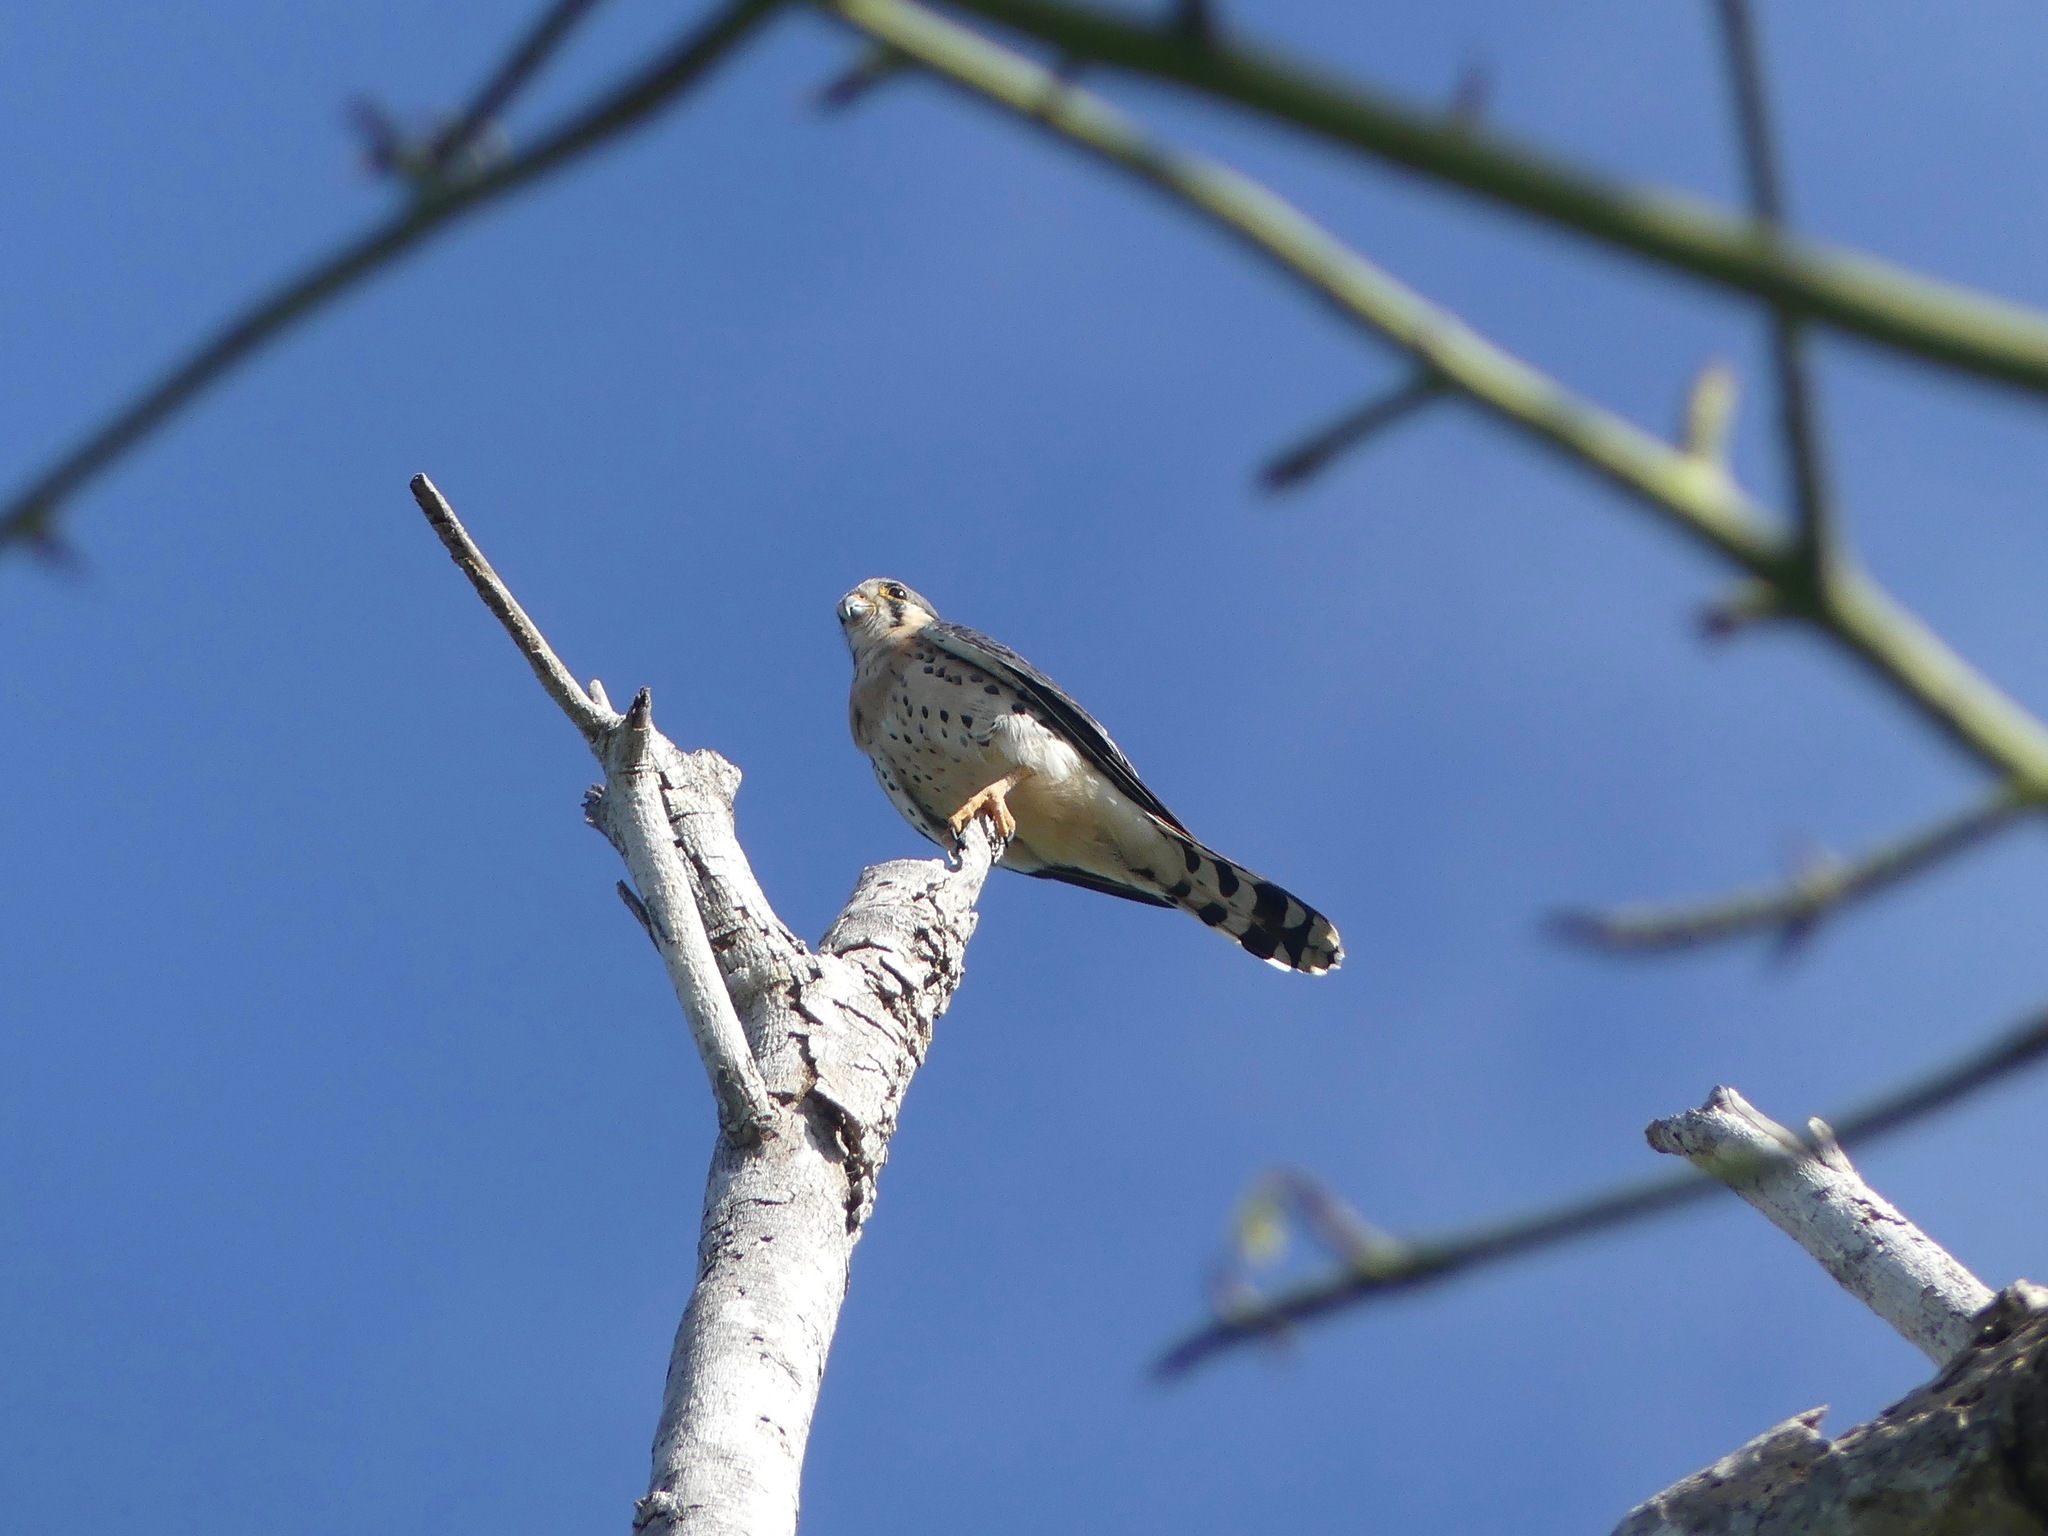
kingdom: Animalia
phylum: Chordata
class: Aves
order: Falconiformes
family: Falconidae
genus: Falco
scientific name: Falco sparverius
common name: American kestrel
